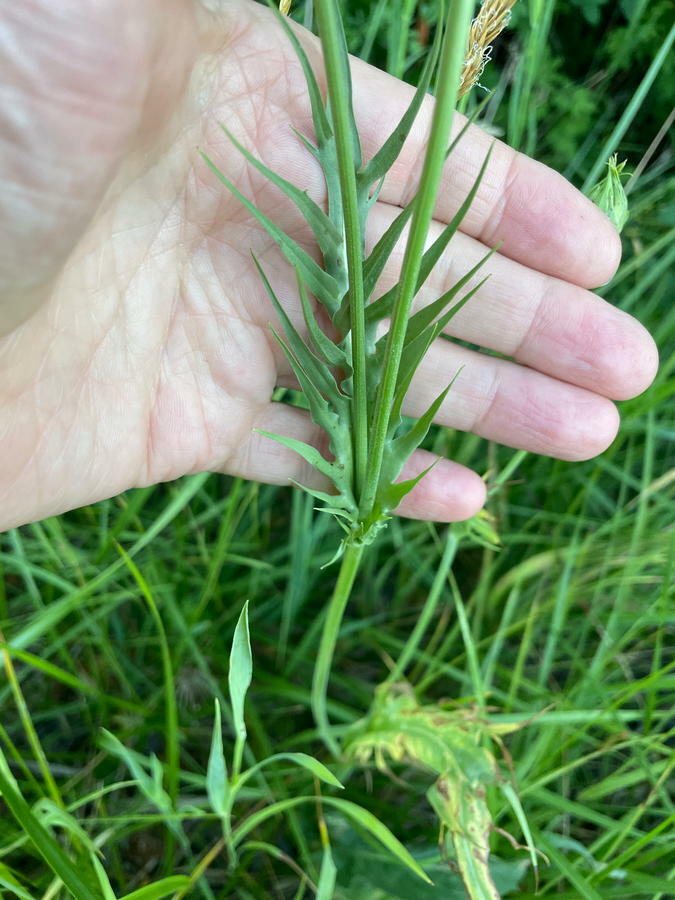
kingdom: Plantae
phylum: Tracheophyta
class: Magnoliopsida
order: Asterales
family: Asteraceae
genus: Microseris
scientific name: Microseris laciniata
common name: Cut-leaf microseris
